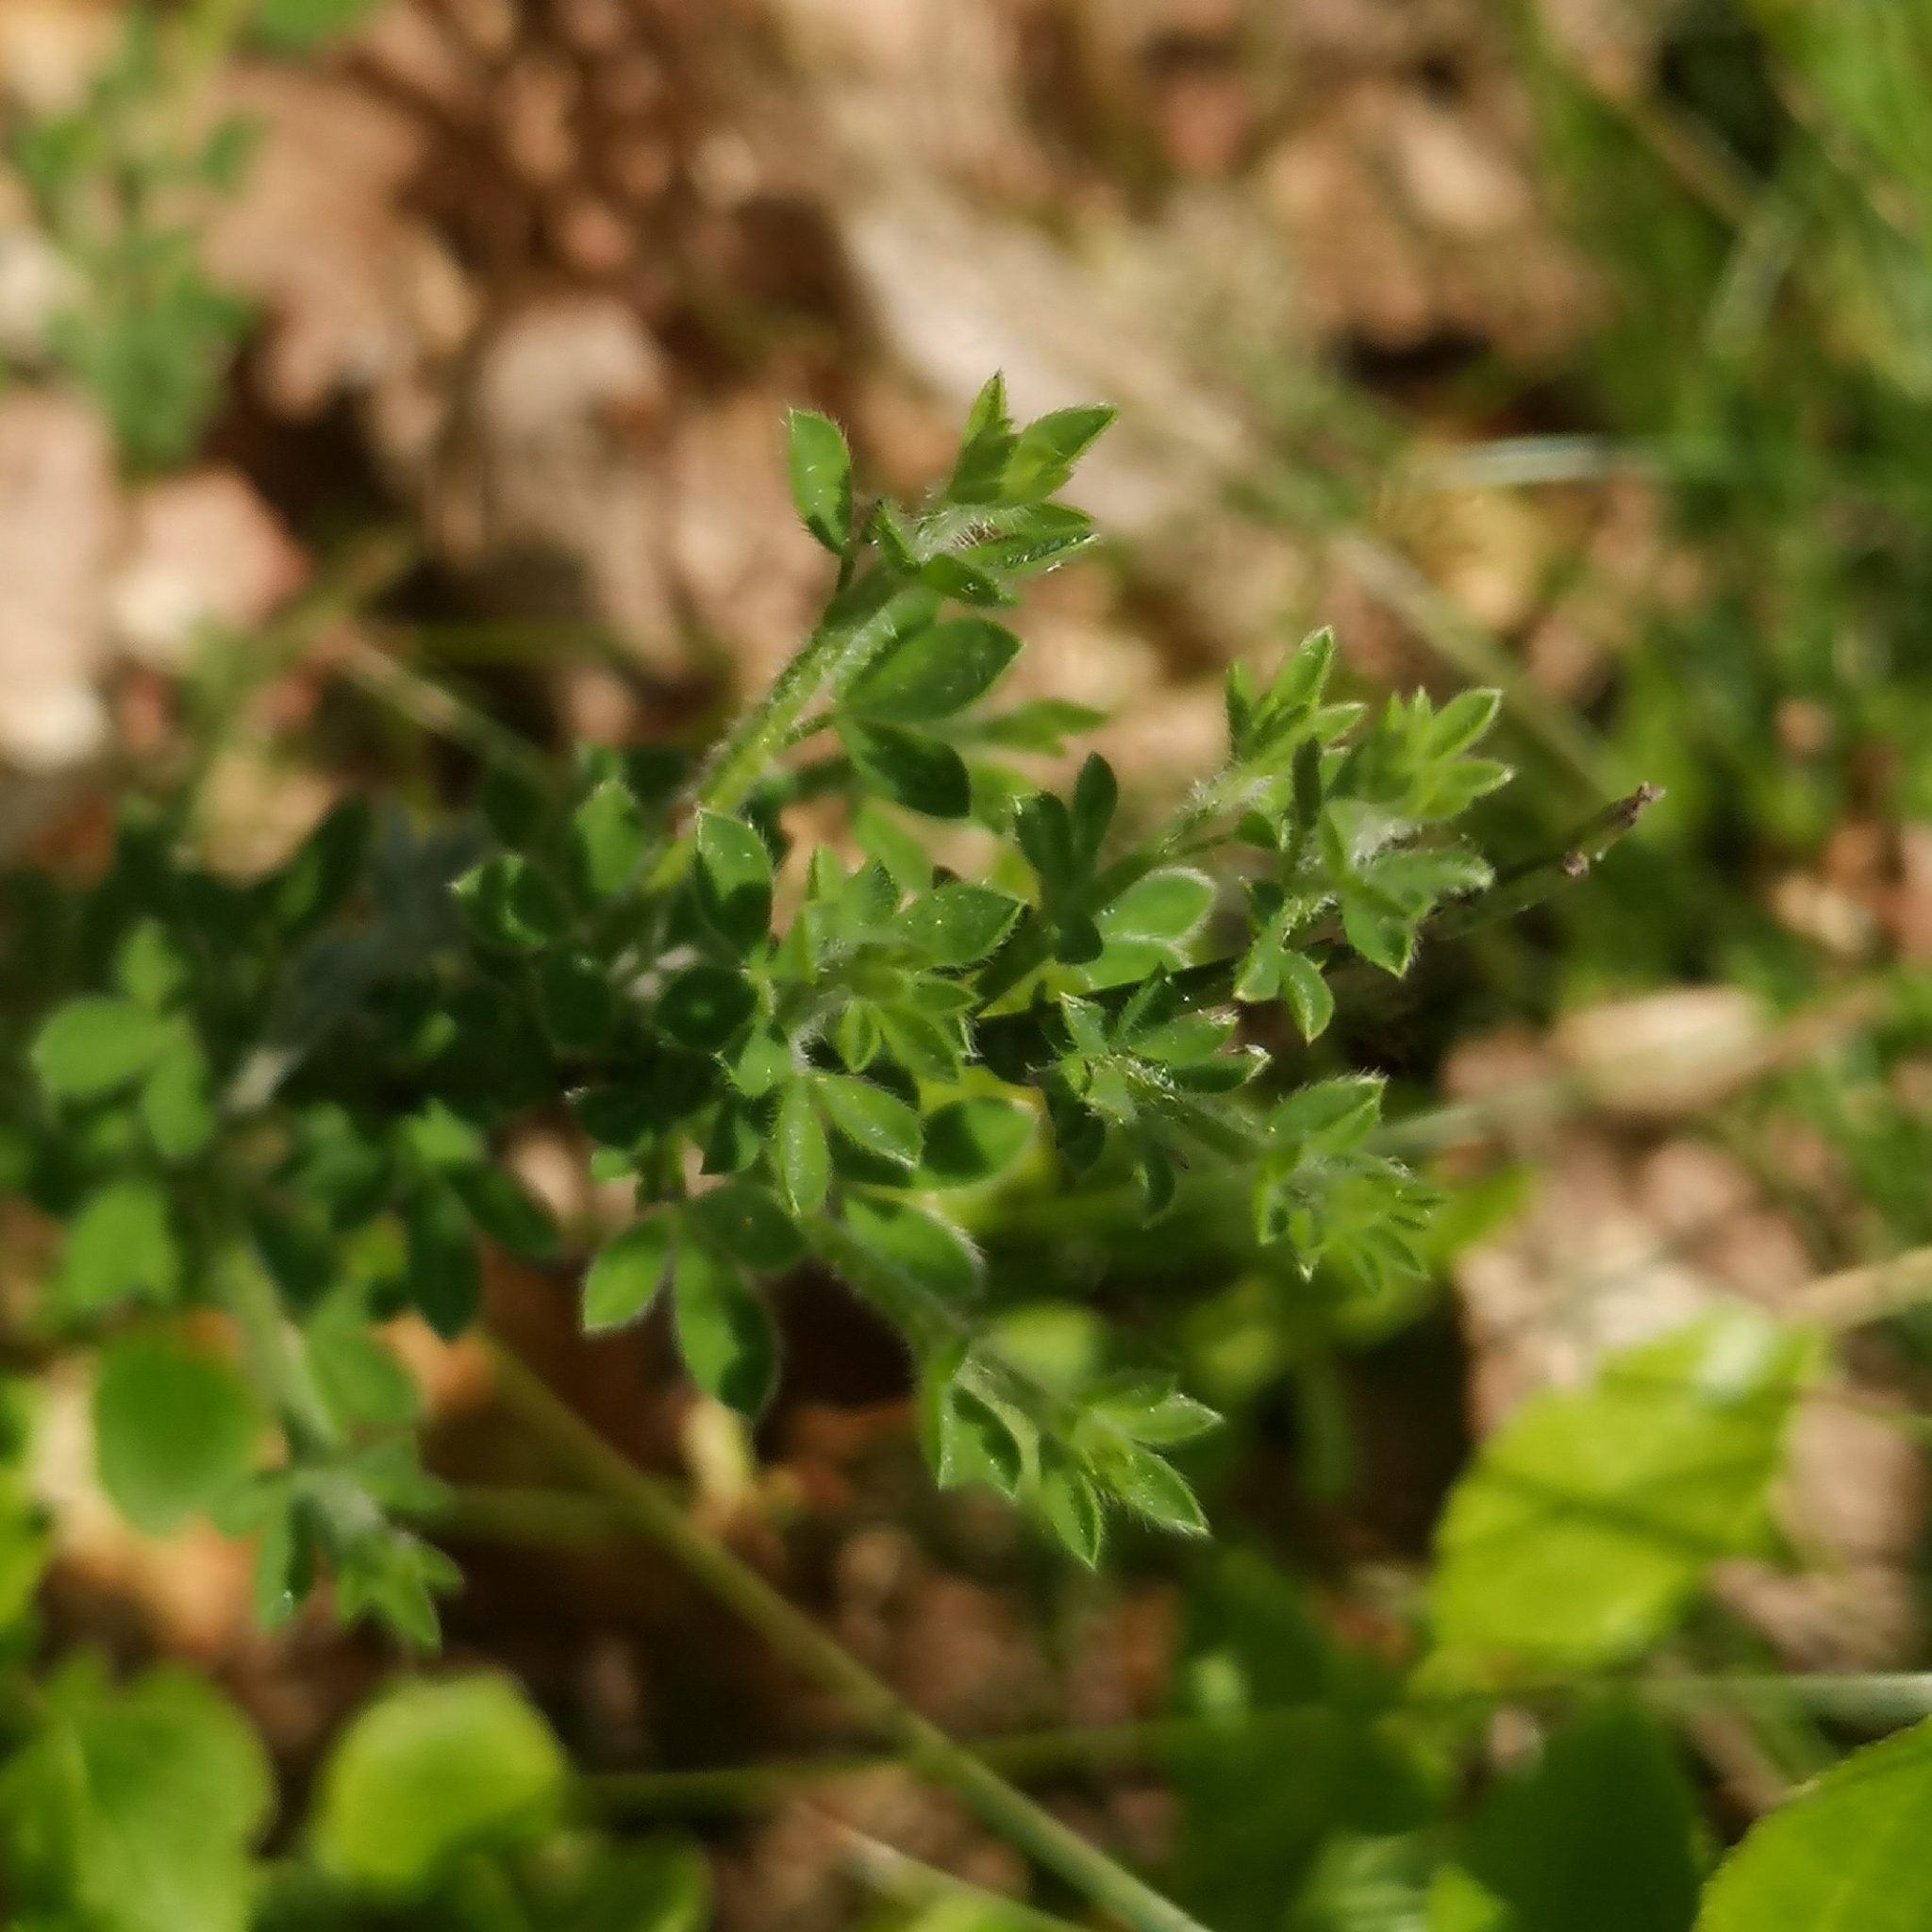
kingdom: Plantae
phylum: Tracheophyta
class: Magnoliopsida
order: Fabales
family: Fabaceae
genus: Cytisus
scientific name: Cytisus scoparius
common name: Scotch broom
